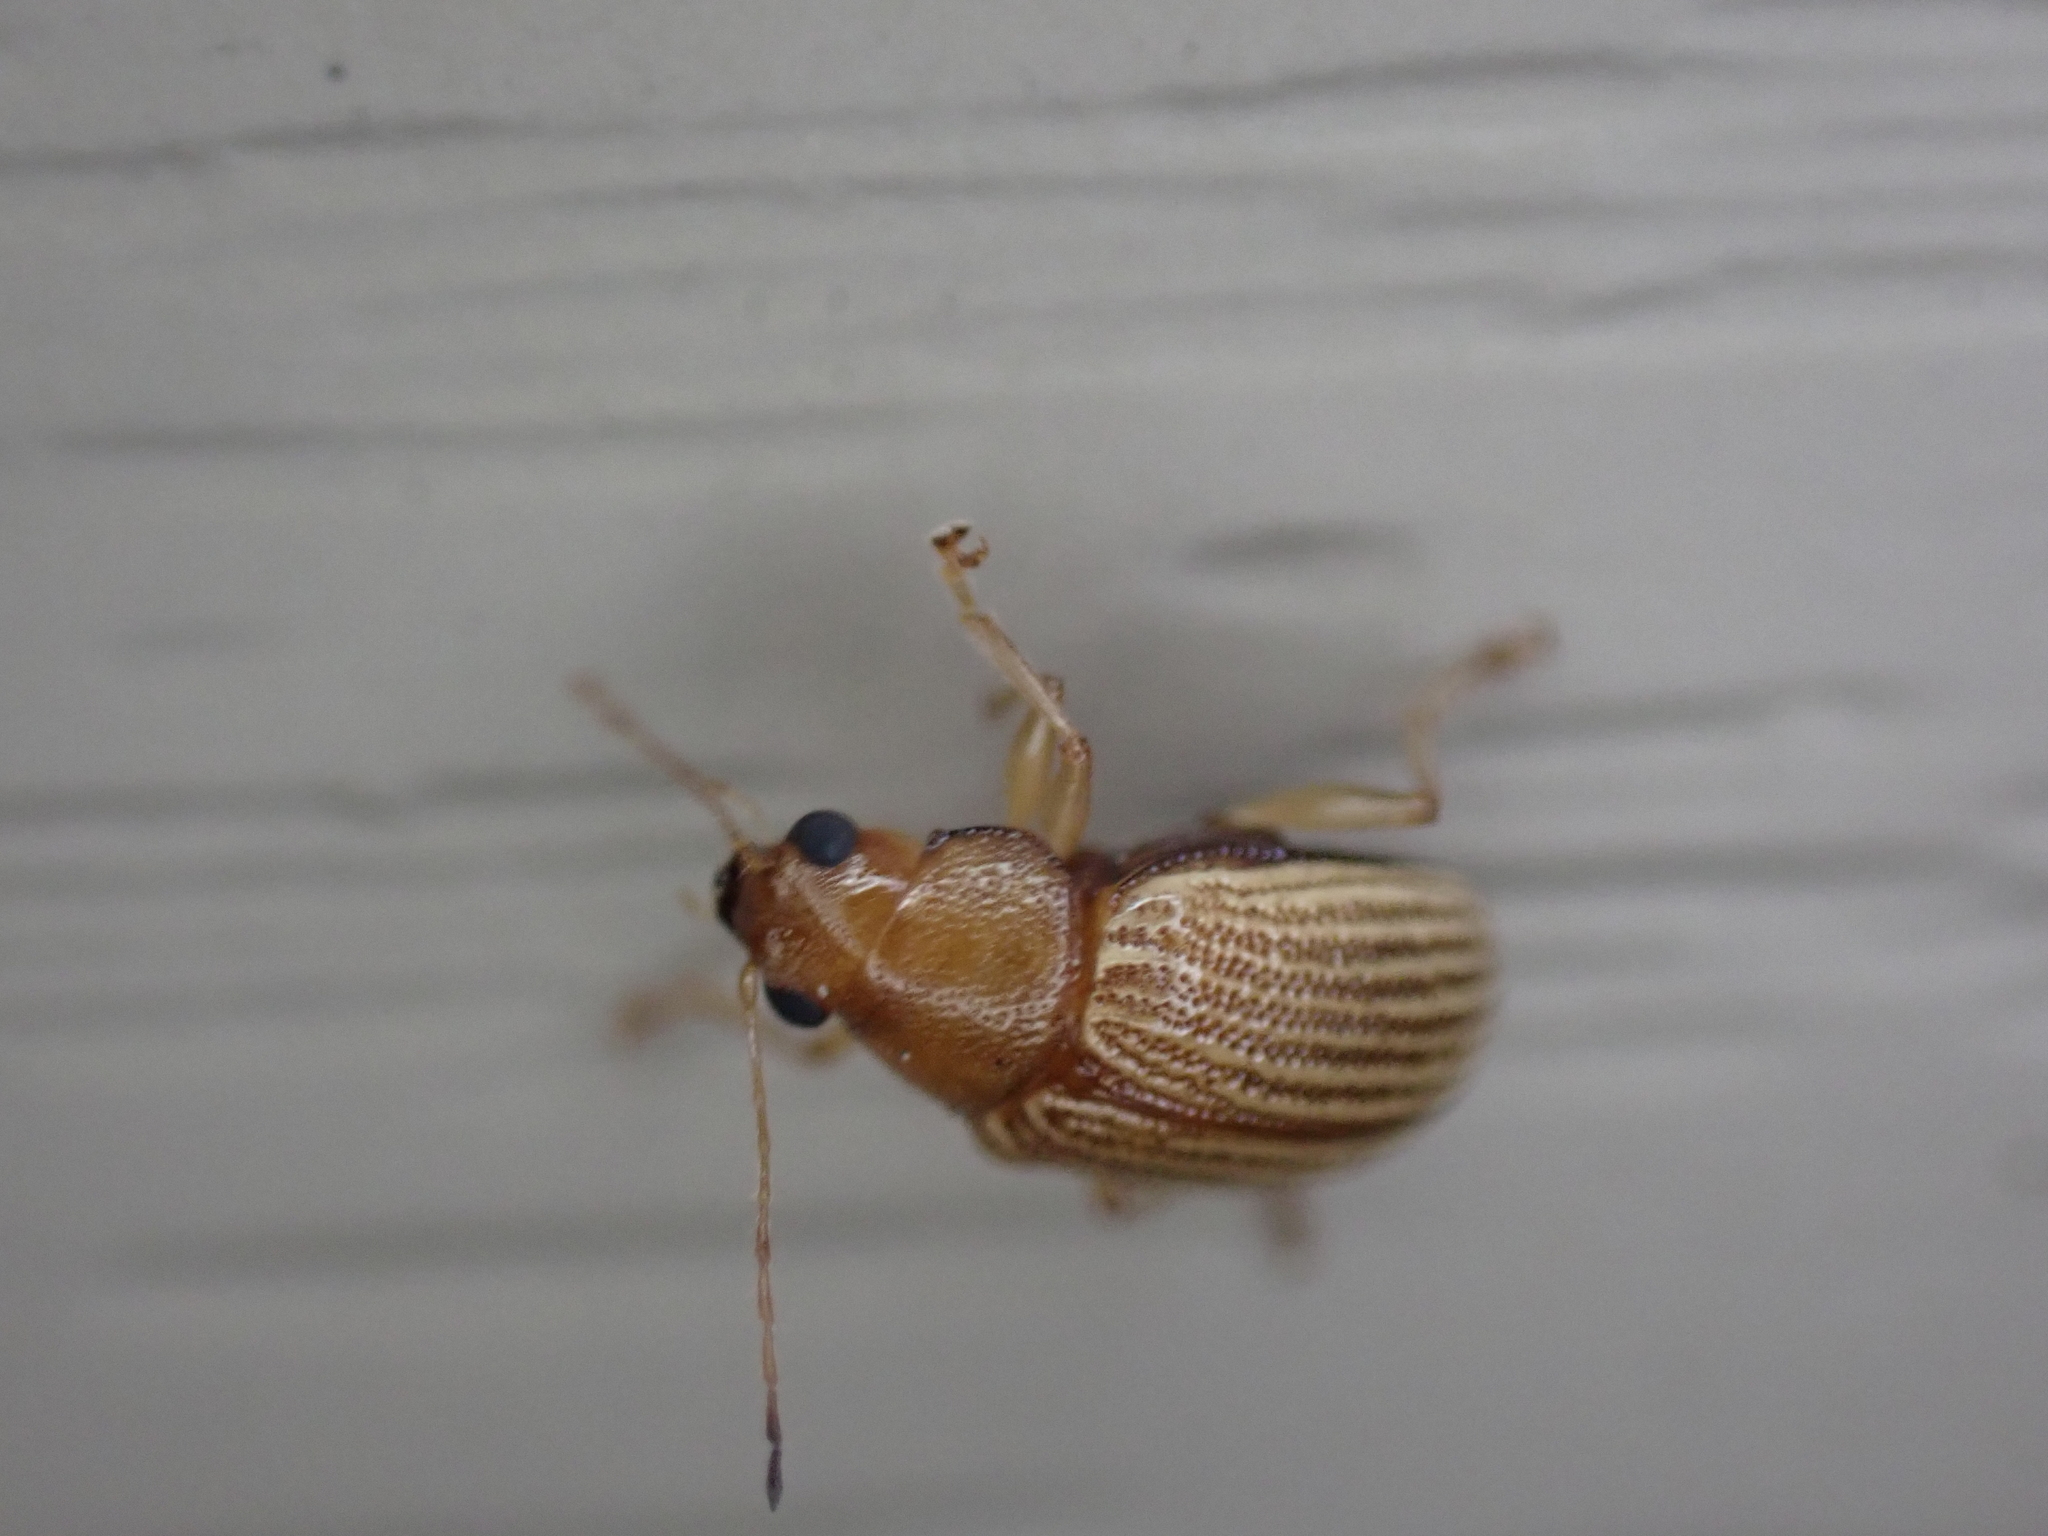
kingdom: Animalia
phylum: Arthropoda
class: Insecta
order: Coleoptera
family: Chrysomelidae
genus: Colaspis
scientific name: Colaspis brunnea
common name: Grape colaspis
